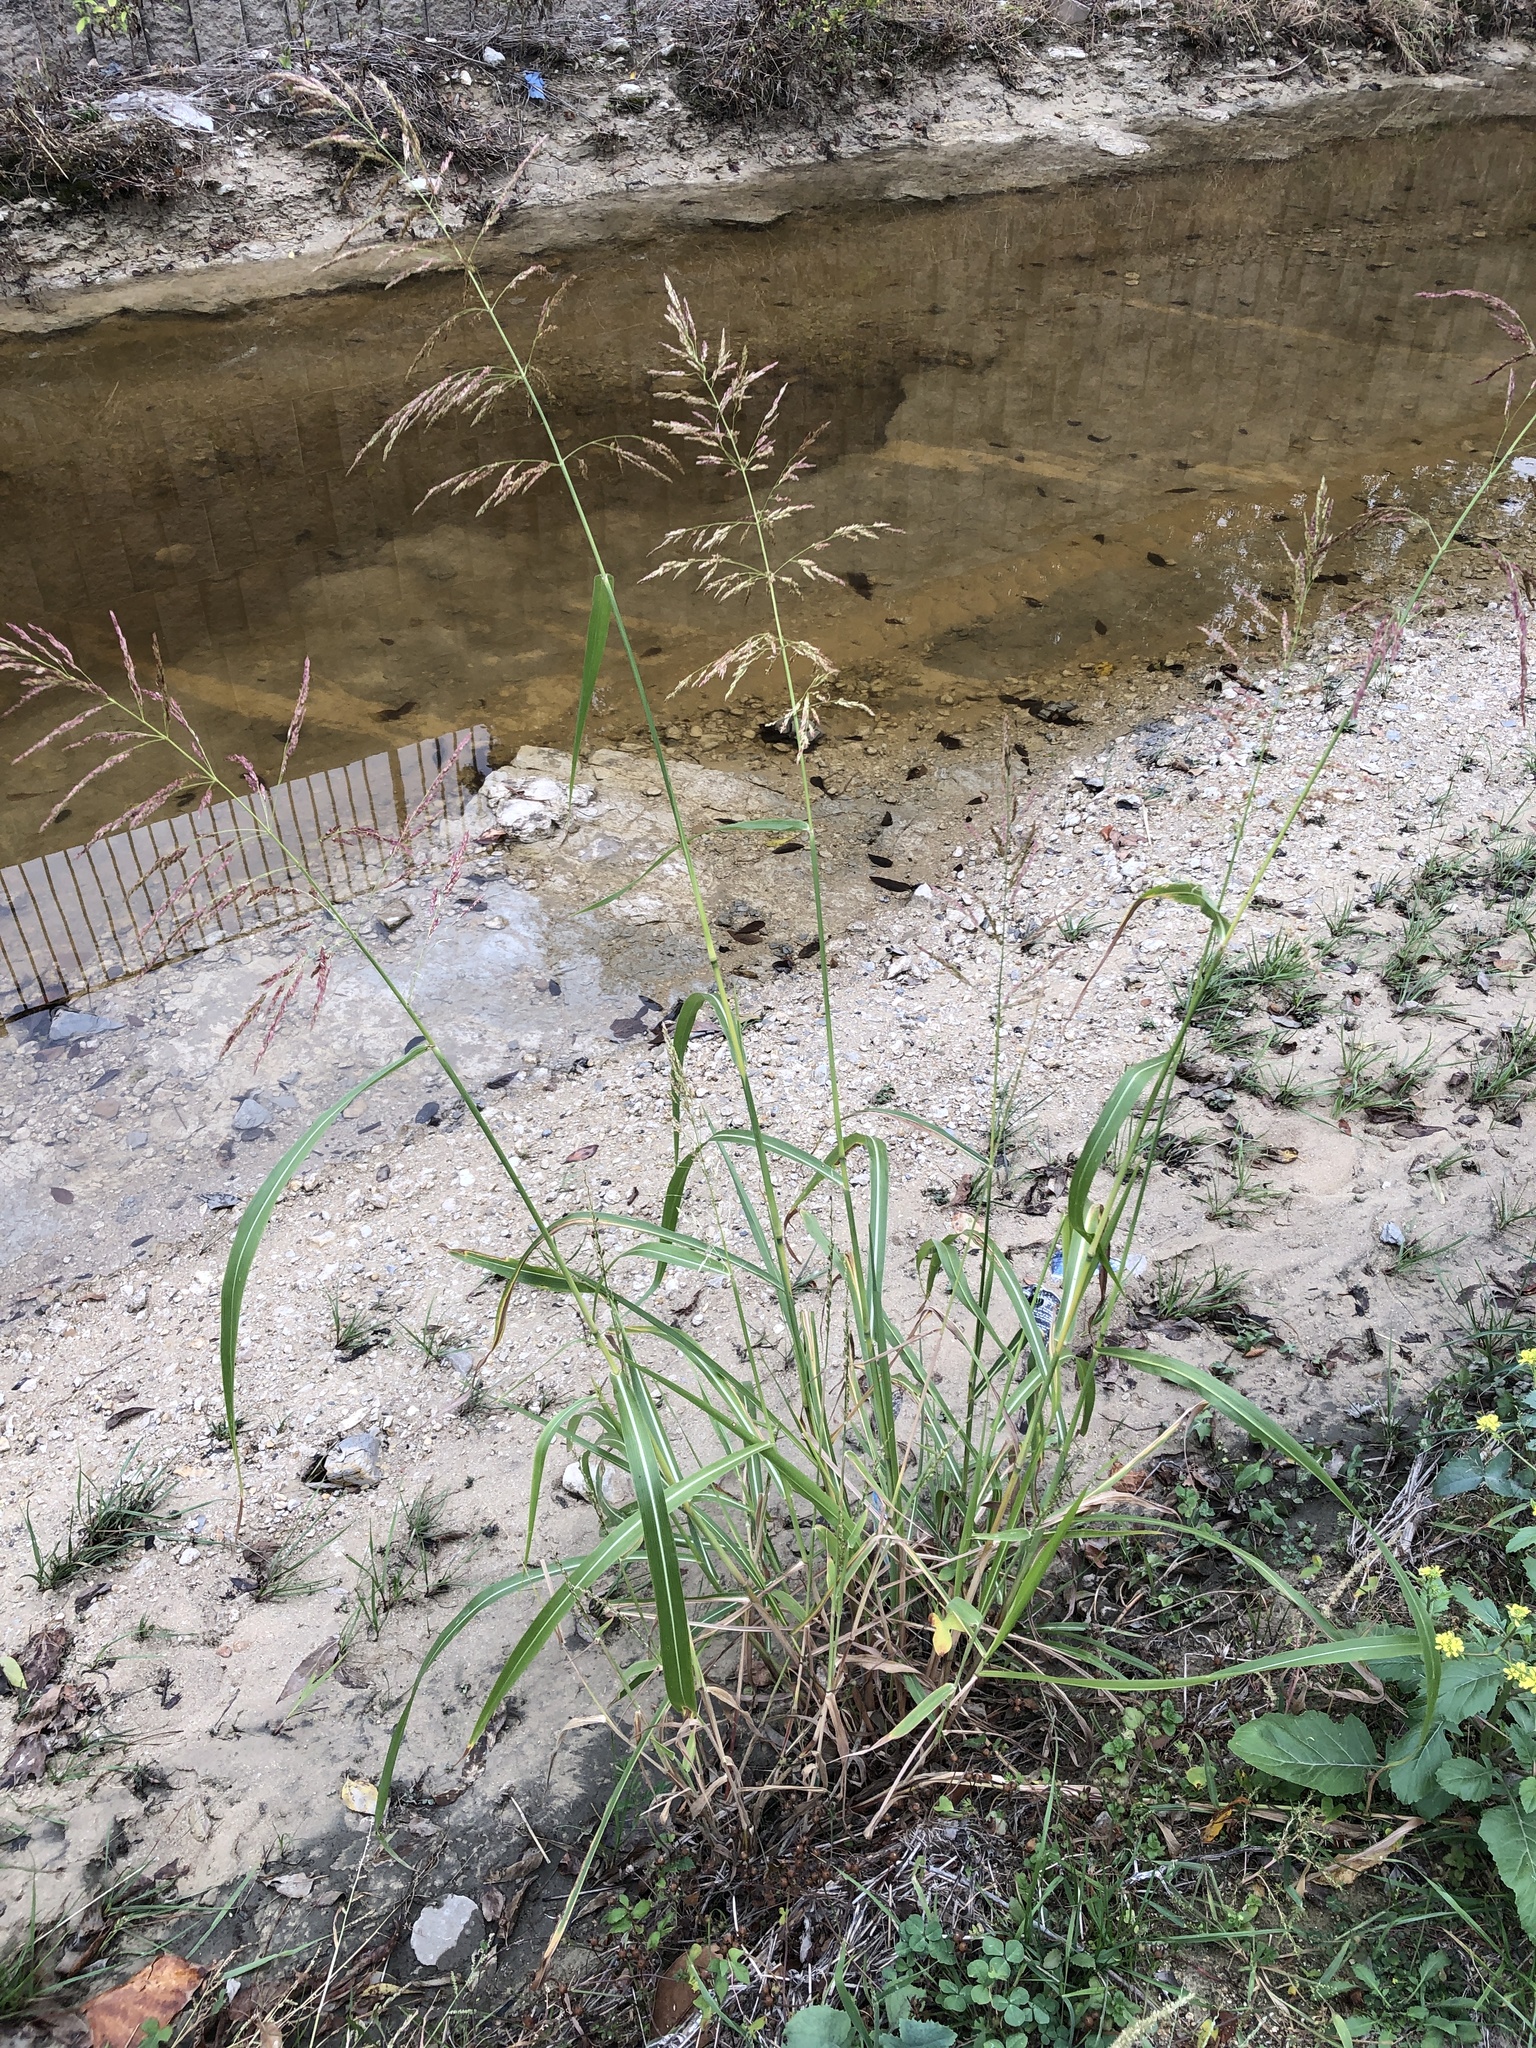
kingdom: Plantae
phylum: Tracheophyta
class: Liliopsida
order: Poales
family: Poaceae
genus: Sorghum
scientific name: Sorghum halepense
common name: Johnson-grass
